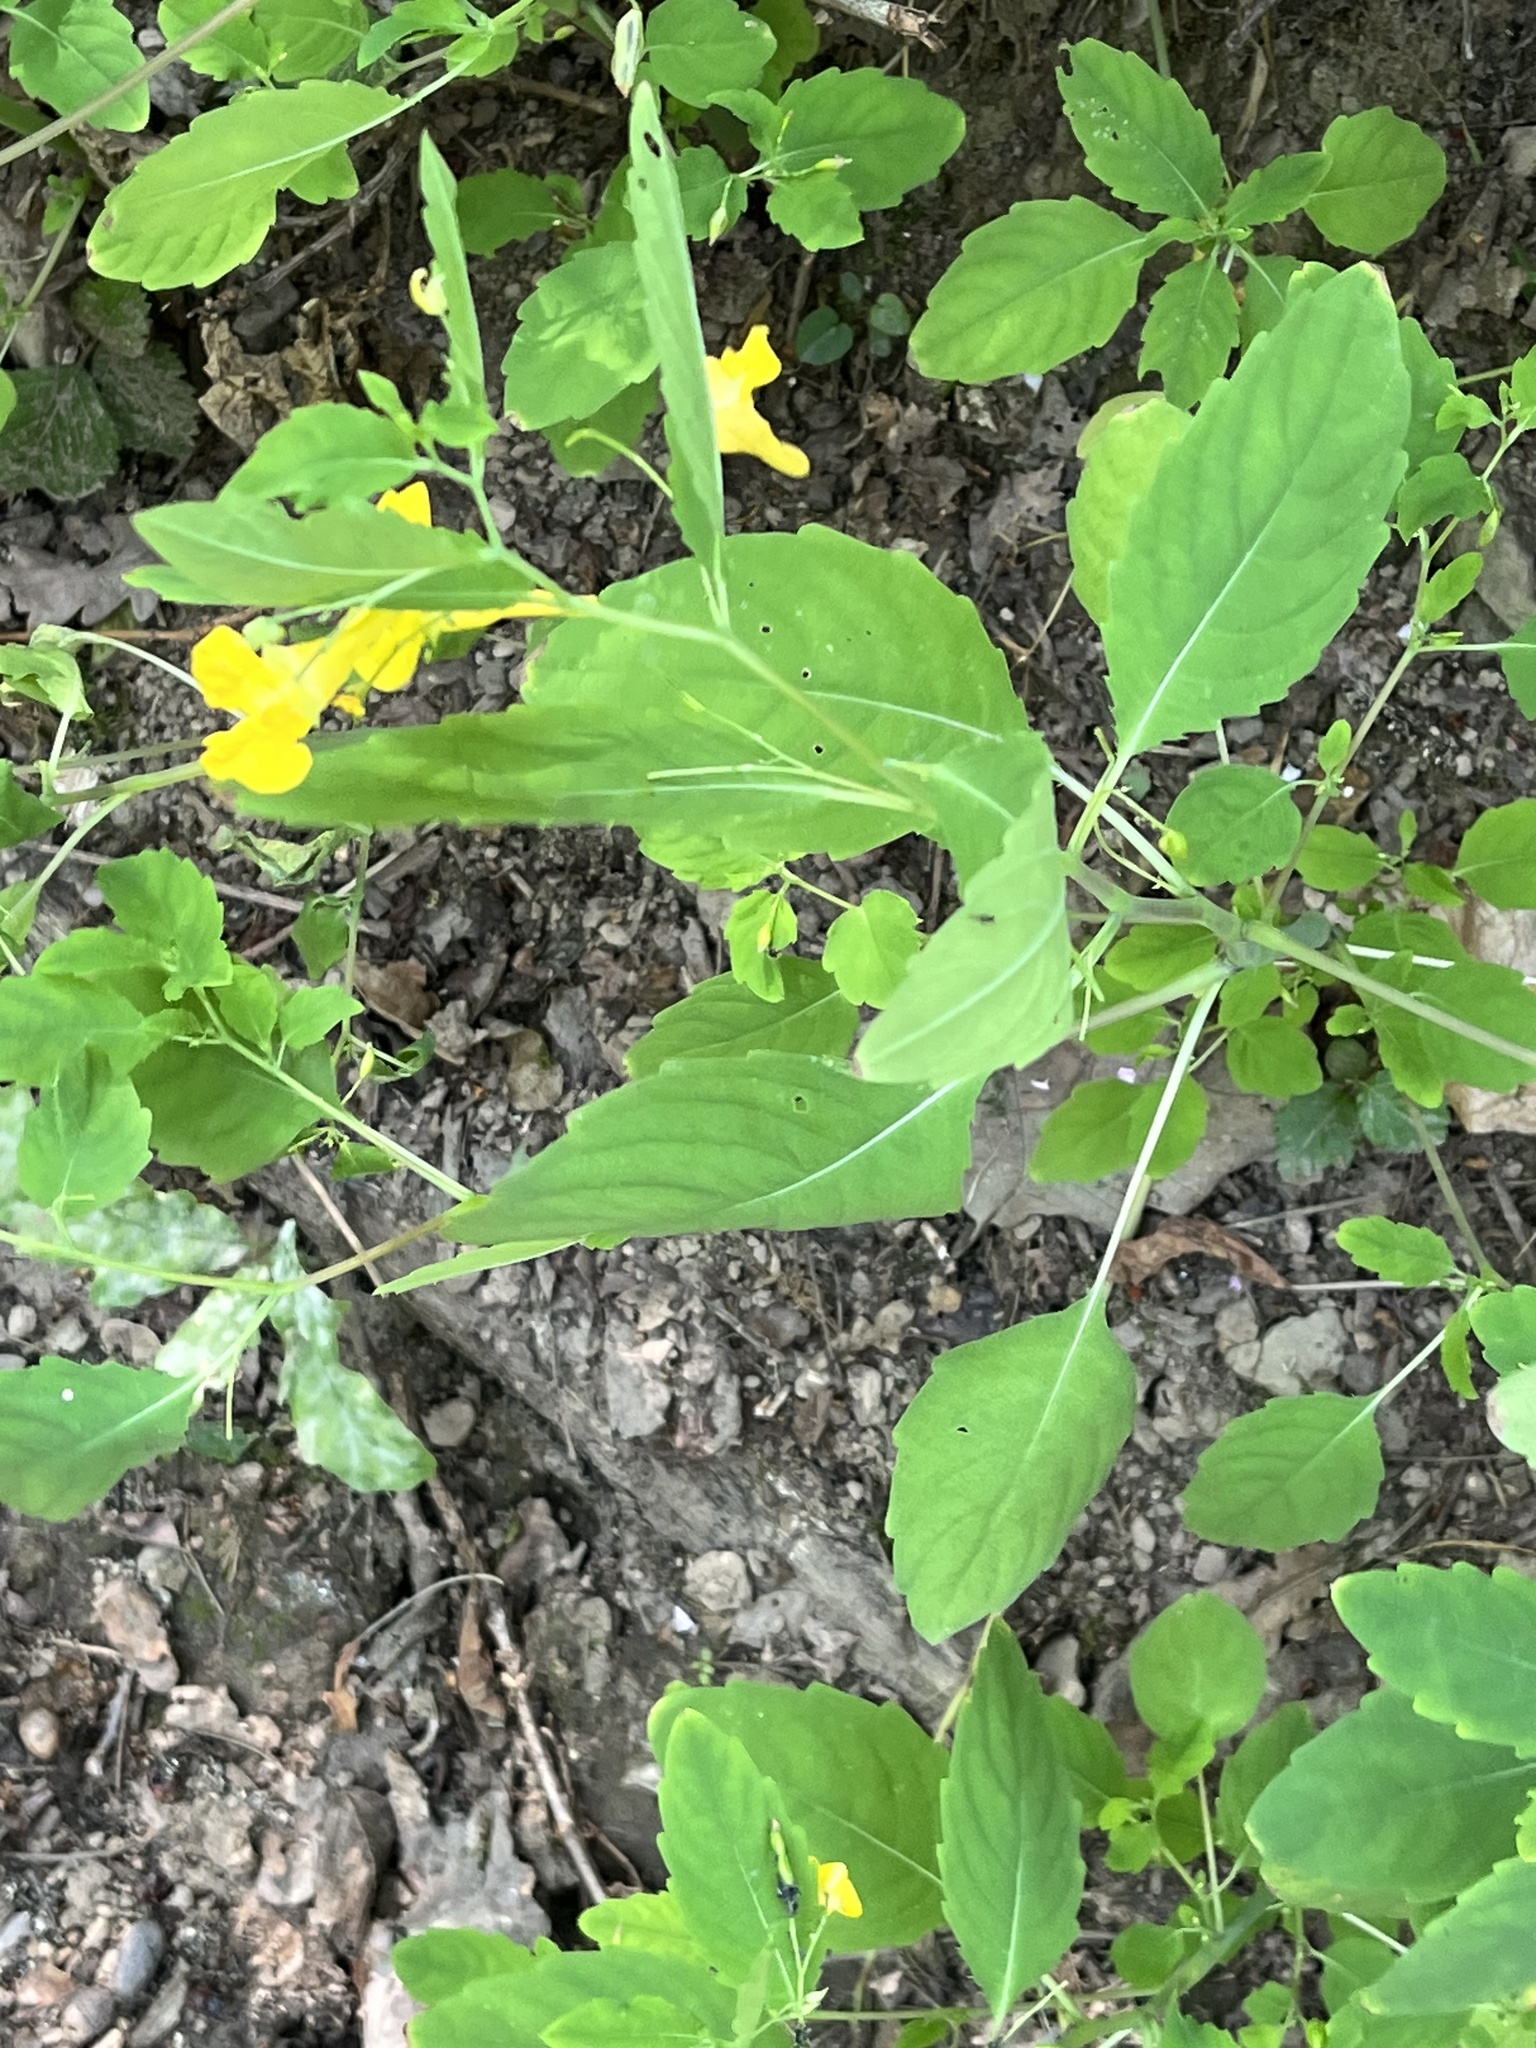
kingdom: Plantae
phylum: Tracheophyta
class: Magnoliopsida
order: Ericales
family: Balsaminaceae
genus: Impatiens
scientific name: Impatiens noli-tangere
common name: Touch-me-not balsam
